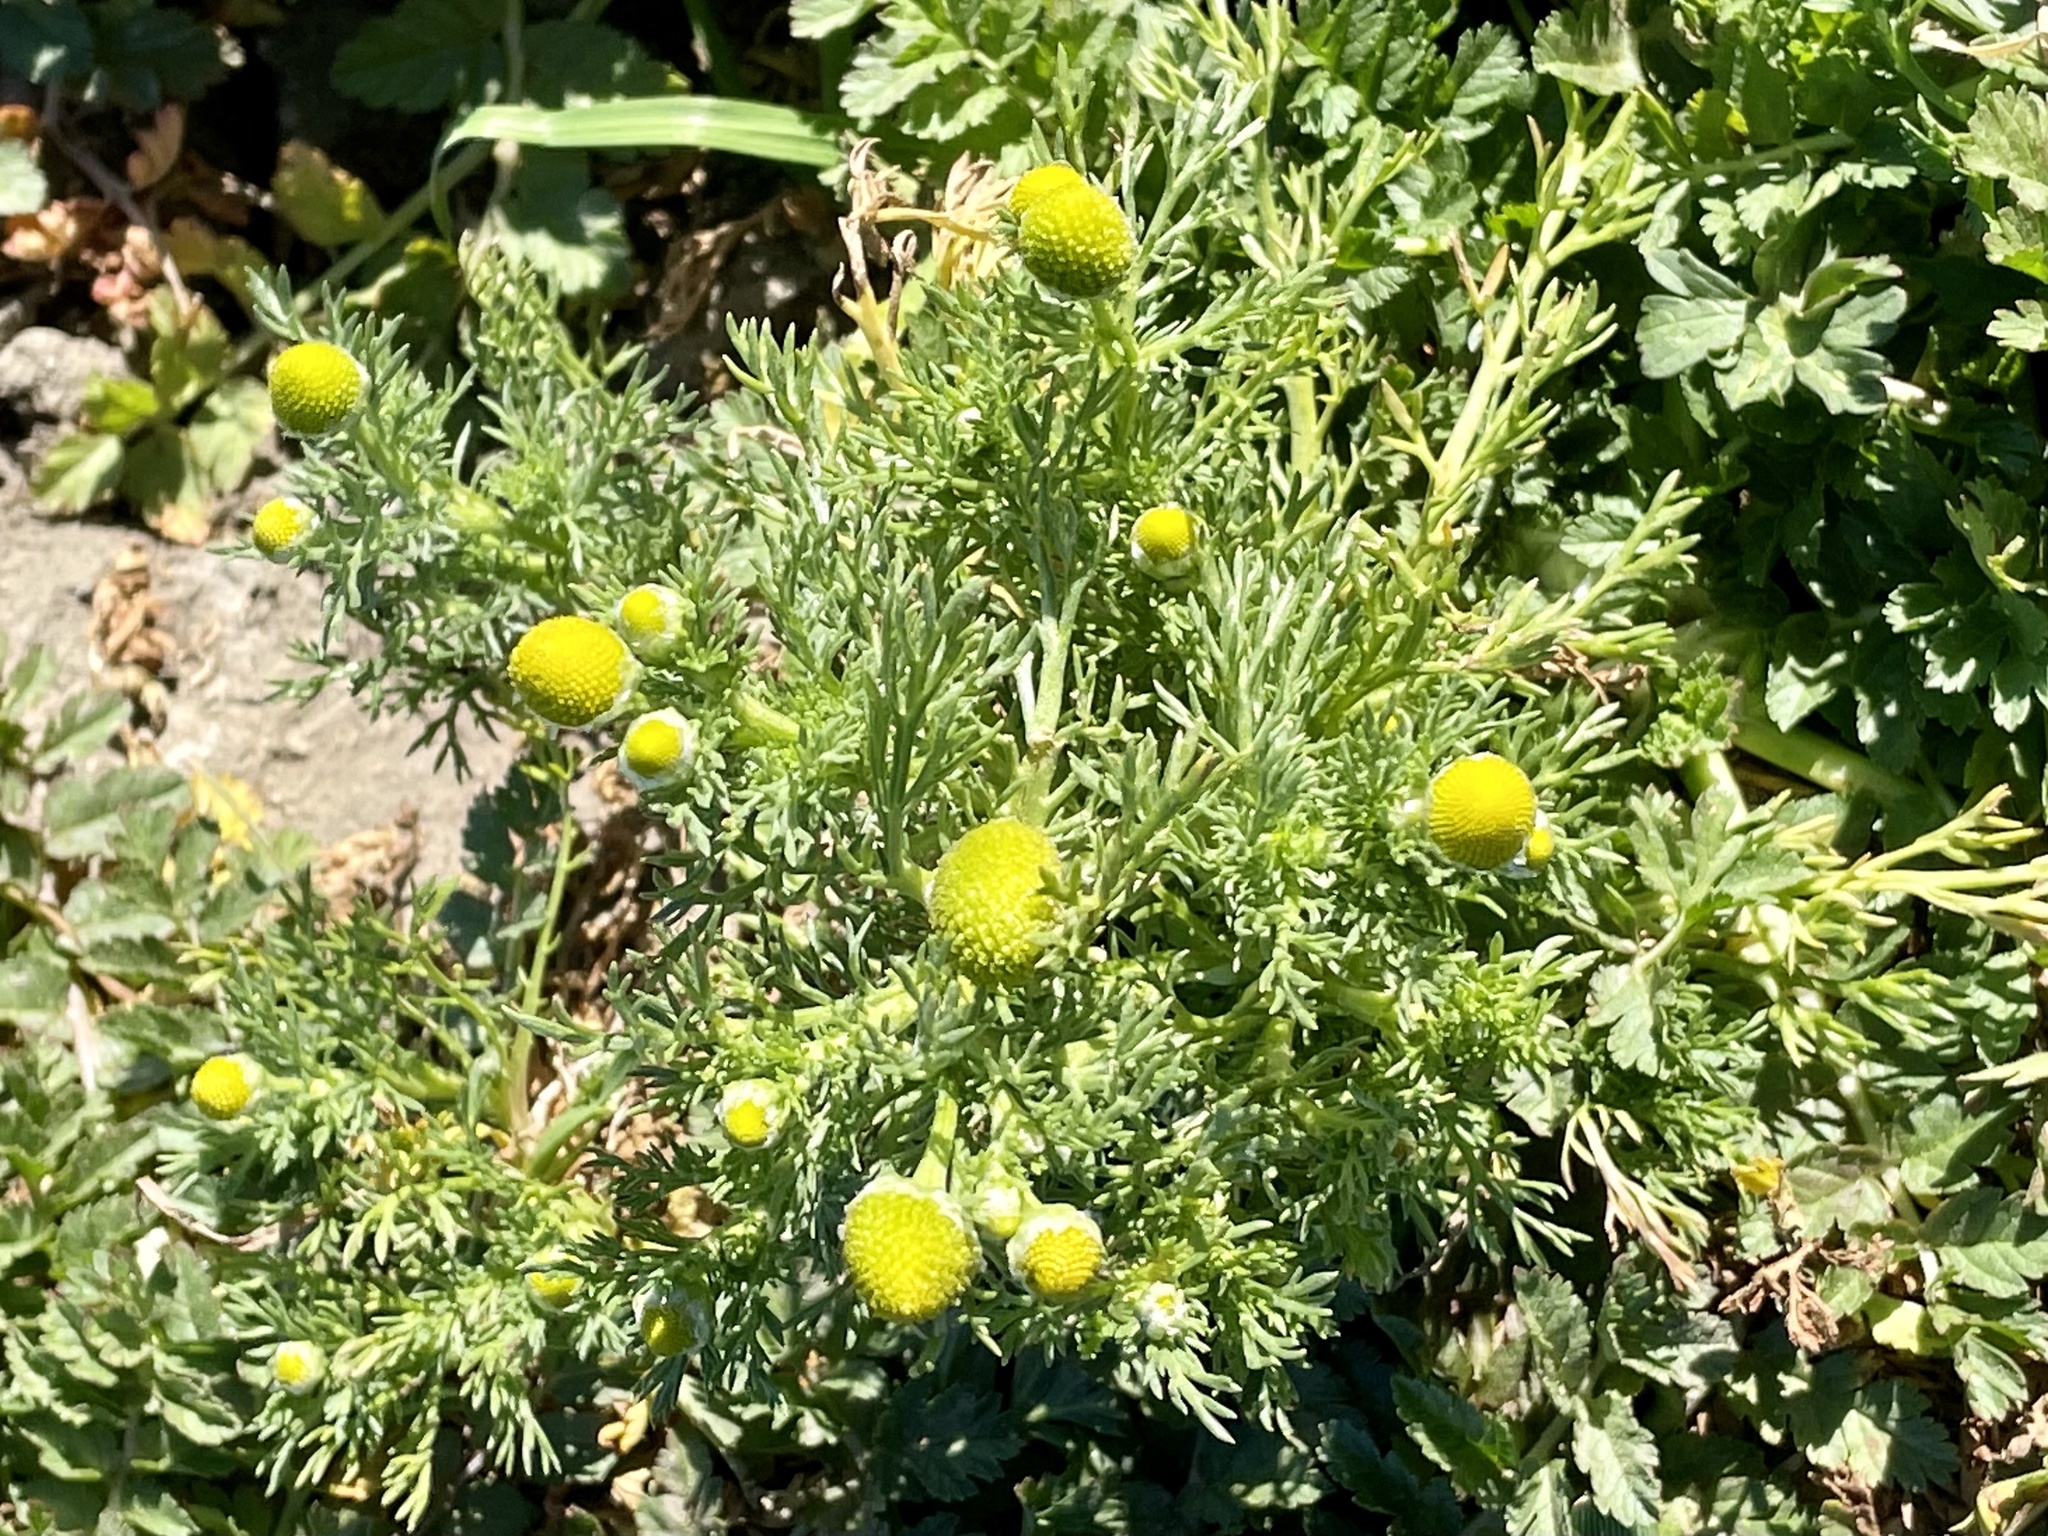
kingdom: Plantae
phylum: Tracheophyta
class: Magnoliopsida
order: Asterales
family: Asteraceae
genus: Matricaria
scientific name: Matricaria discoidea
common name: Disc mayweed
